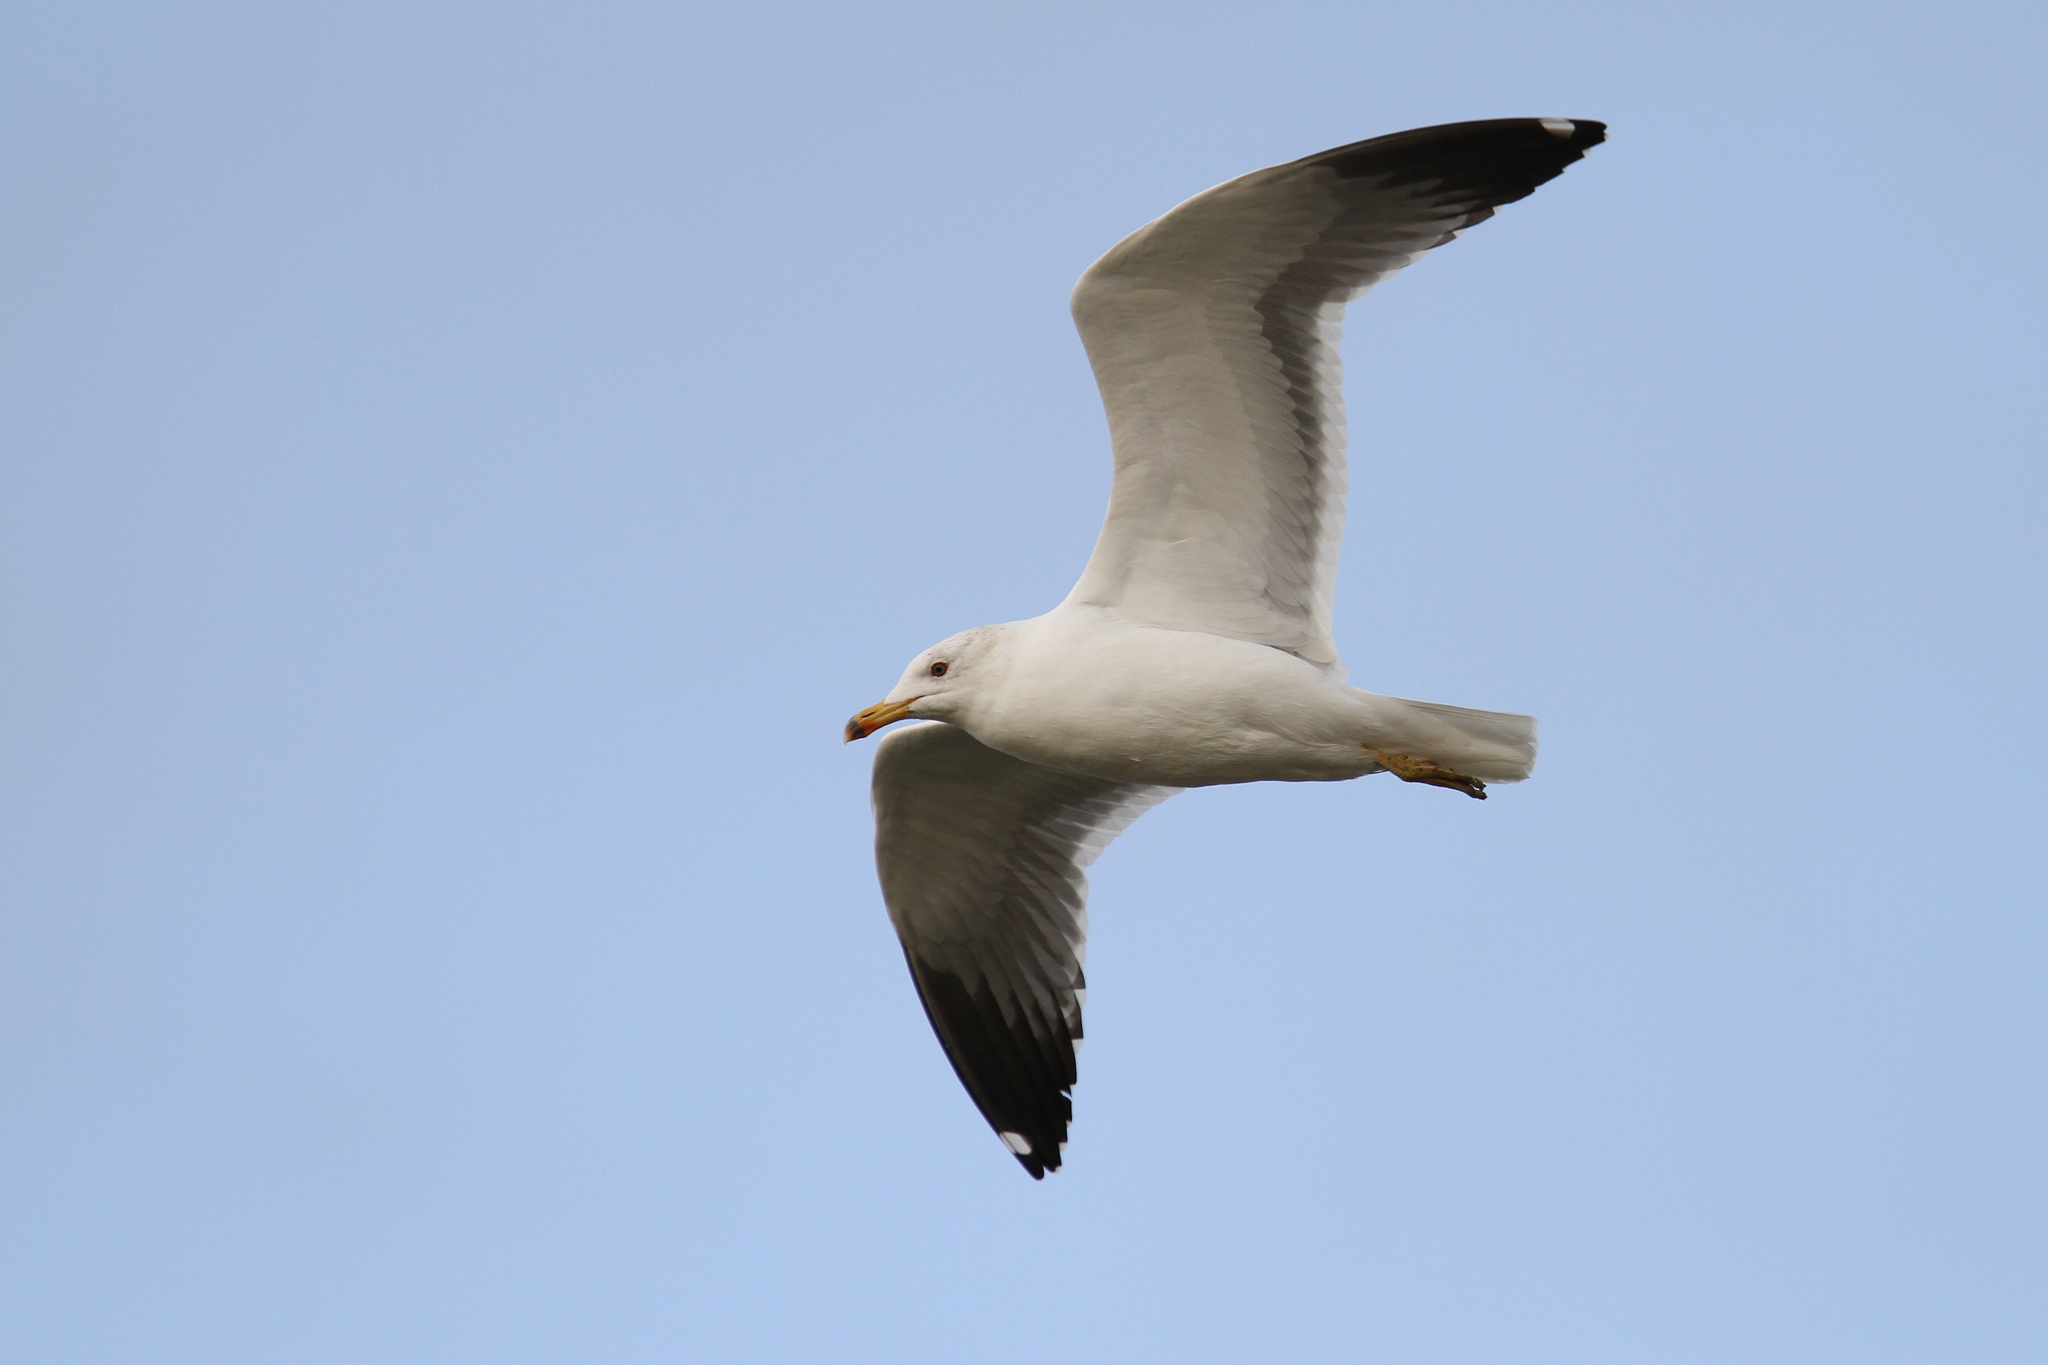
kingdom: Animalia
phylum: Chordata
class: Aves
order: Charadriiformes
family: Laridae
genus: Larus
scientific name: Larus armenicus
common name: Armenian gull
